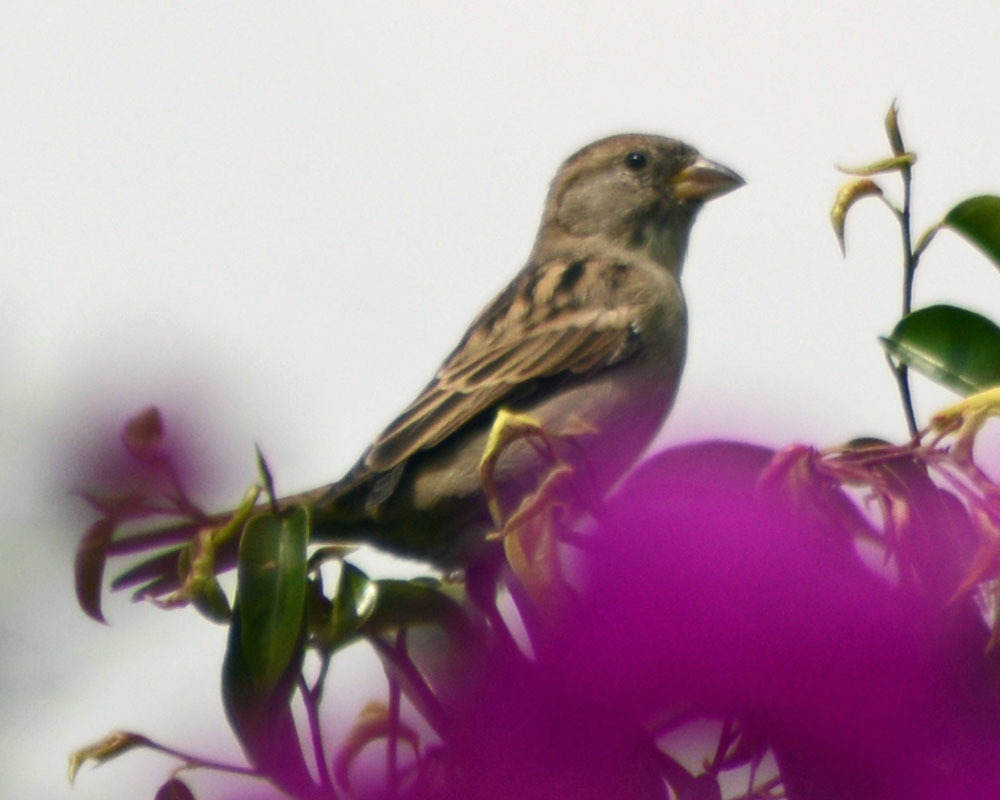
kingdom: Animalia
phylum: Chordata
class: Aves
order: Passeriformes
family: Passeridae
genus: Passer
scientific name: Passer domesticus
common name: House sparrow
